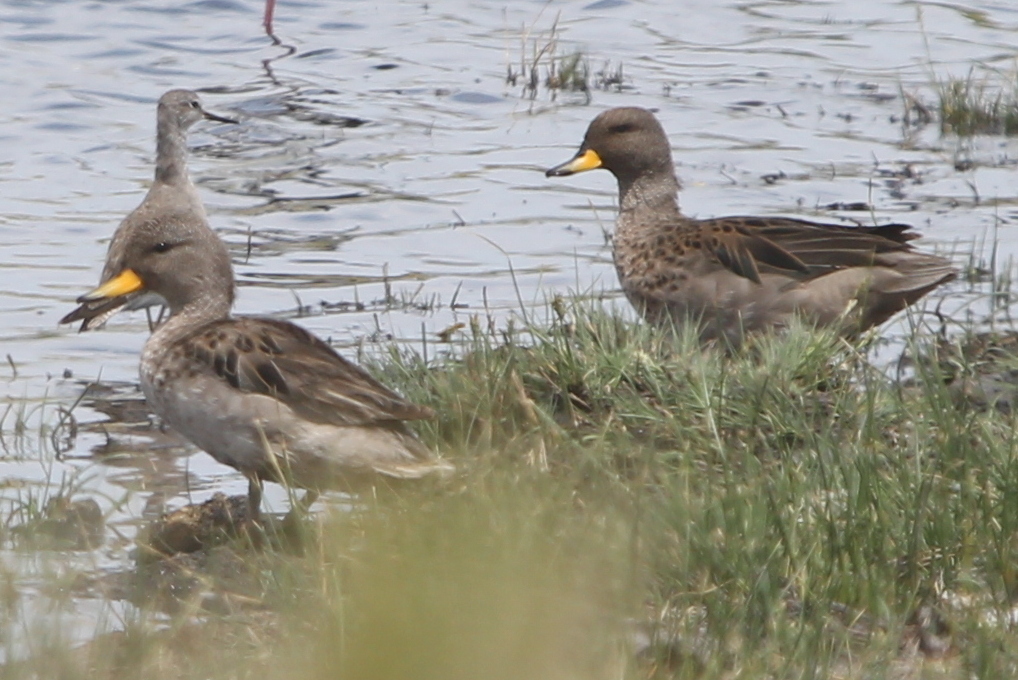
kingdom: Animalia
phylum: Chordata
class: Aves
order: Anseriformes
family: Anatidae
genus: Anas
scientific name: Anas flavirostris
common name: Yellow-billed teal
